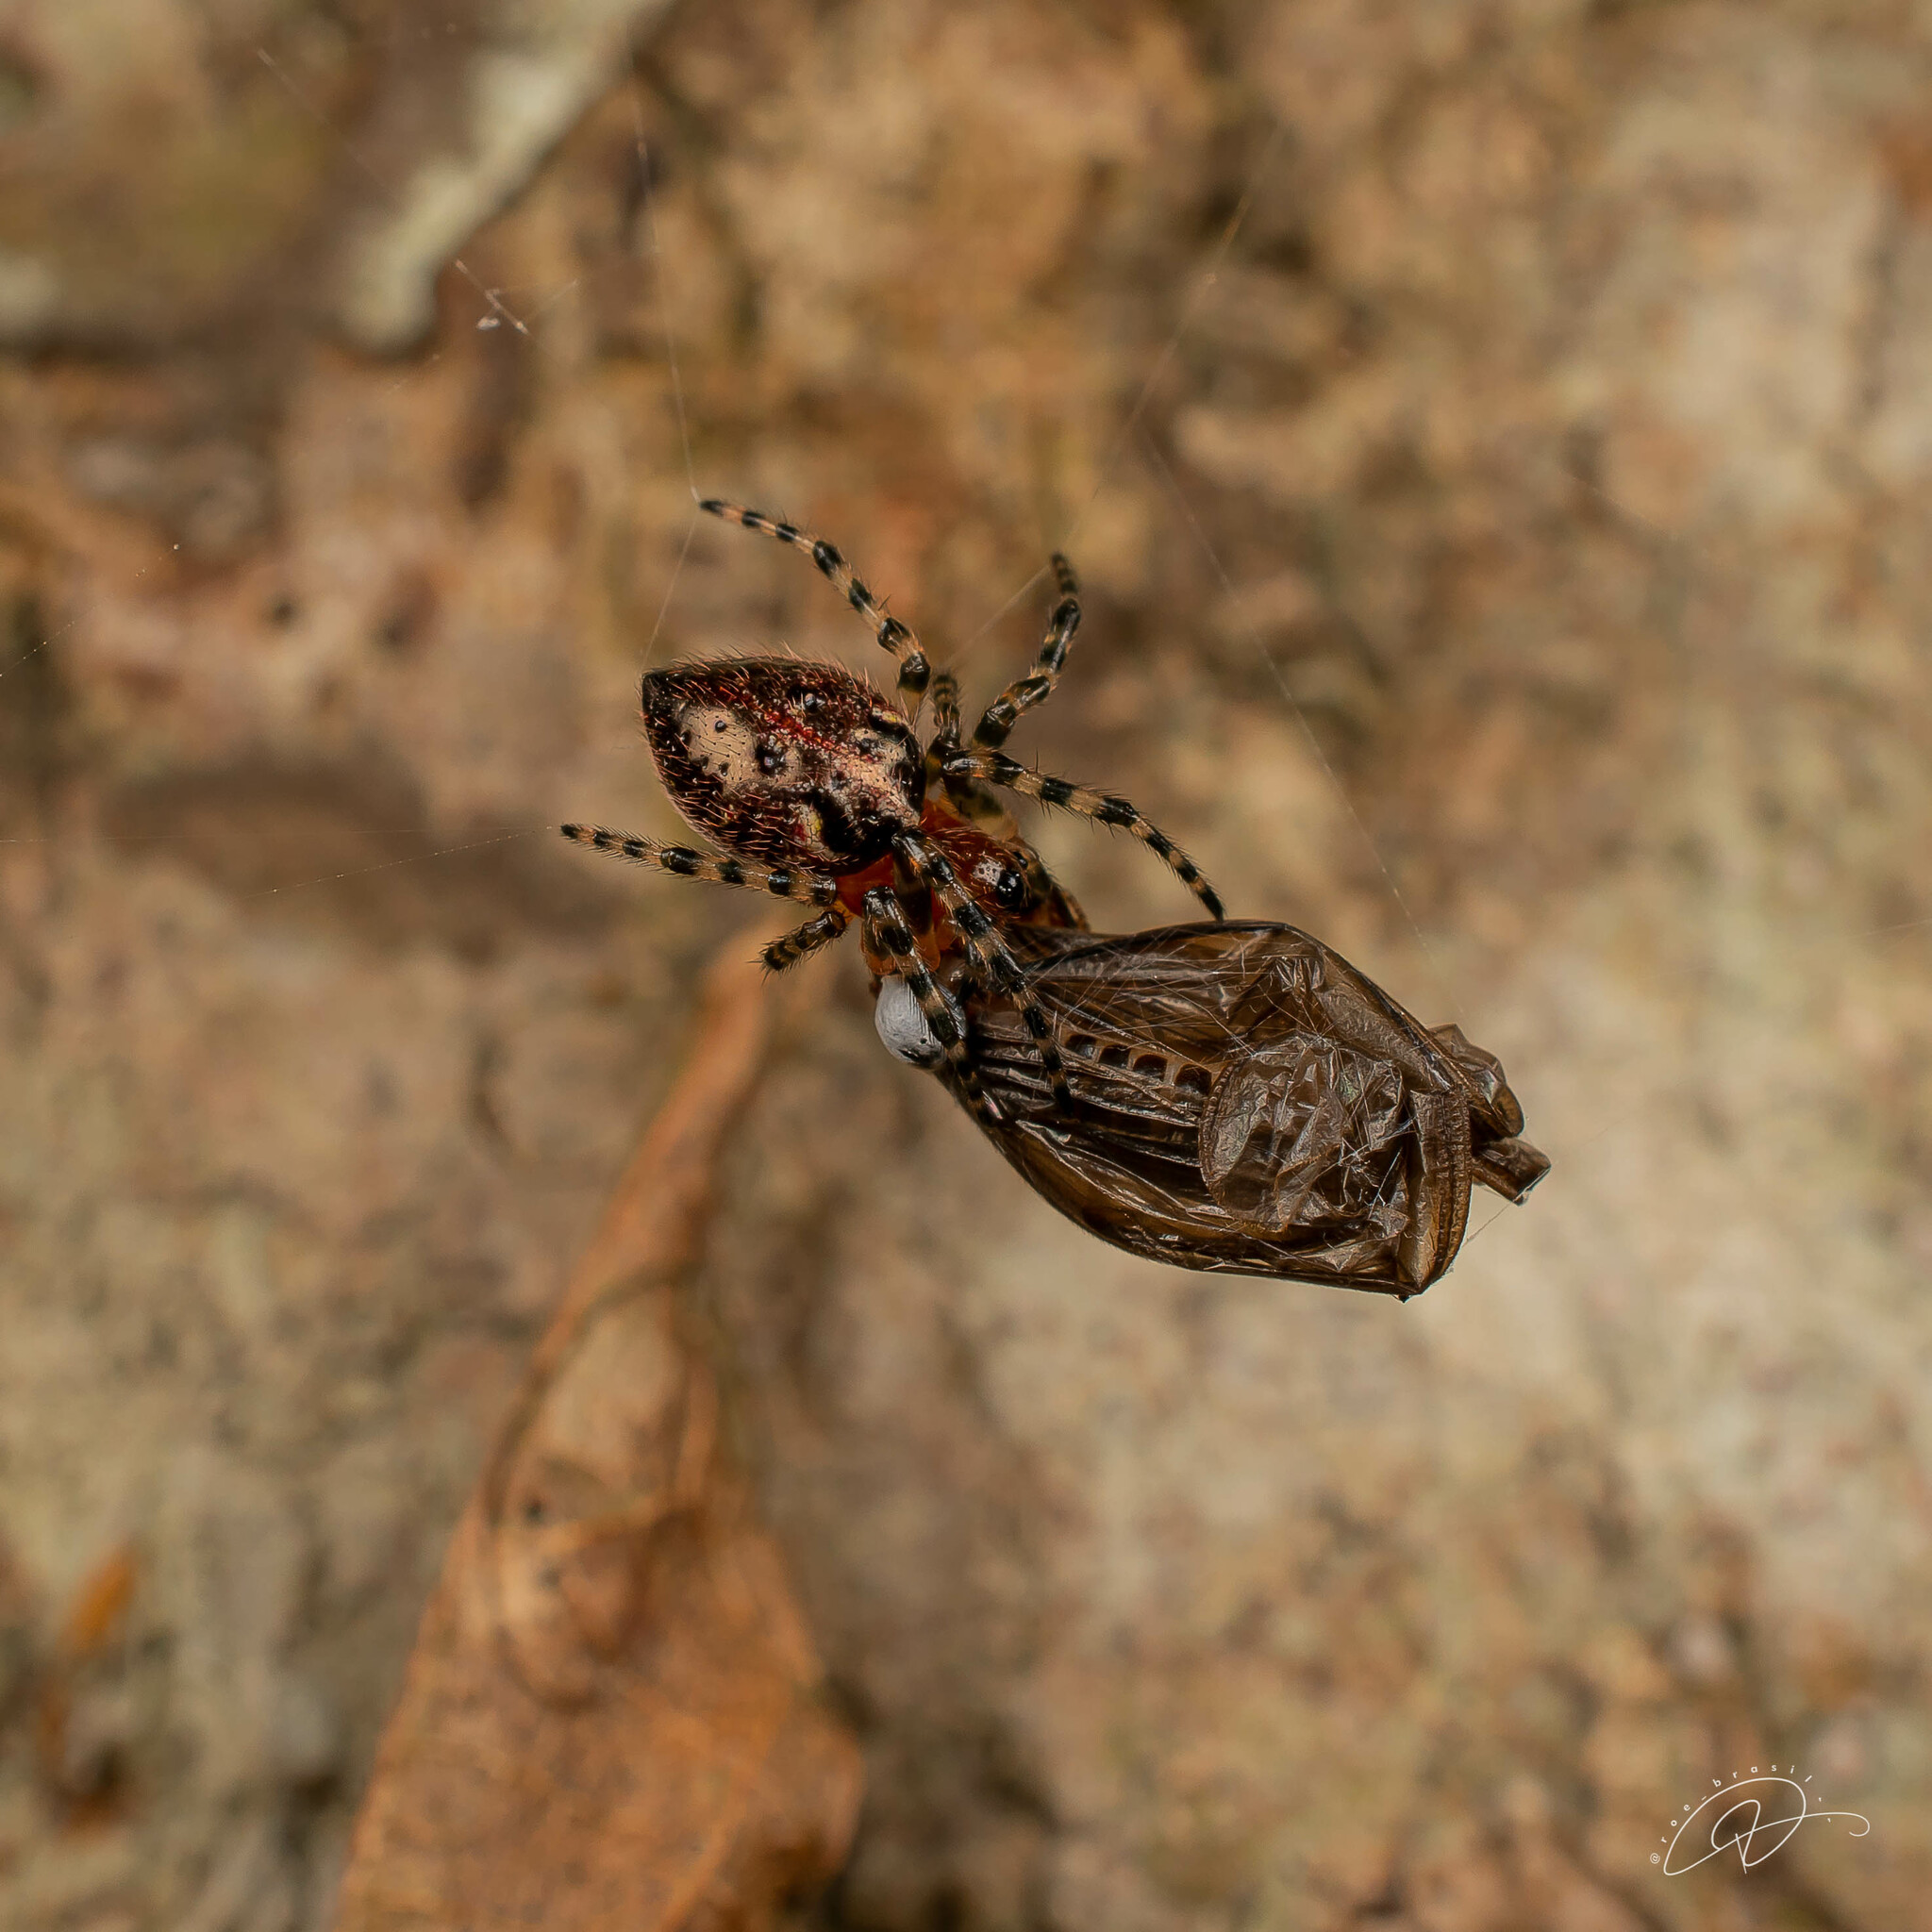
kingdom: Animalia
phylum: Arthropoda
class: Arachnida
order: Araneae
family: Araneidae
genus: Alpaida
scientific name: Alpaida alticeps
